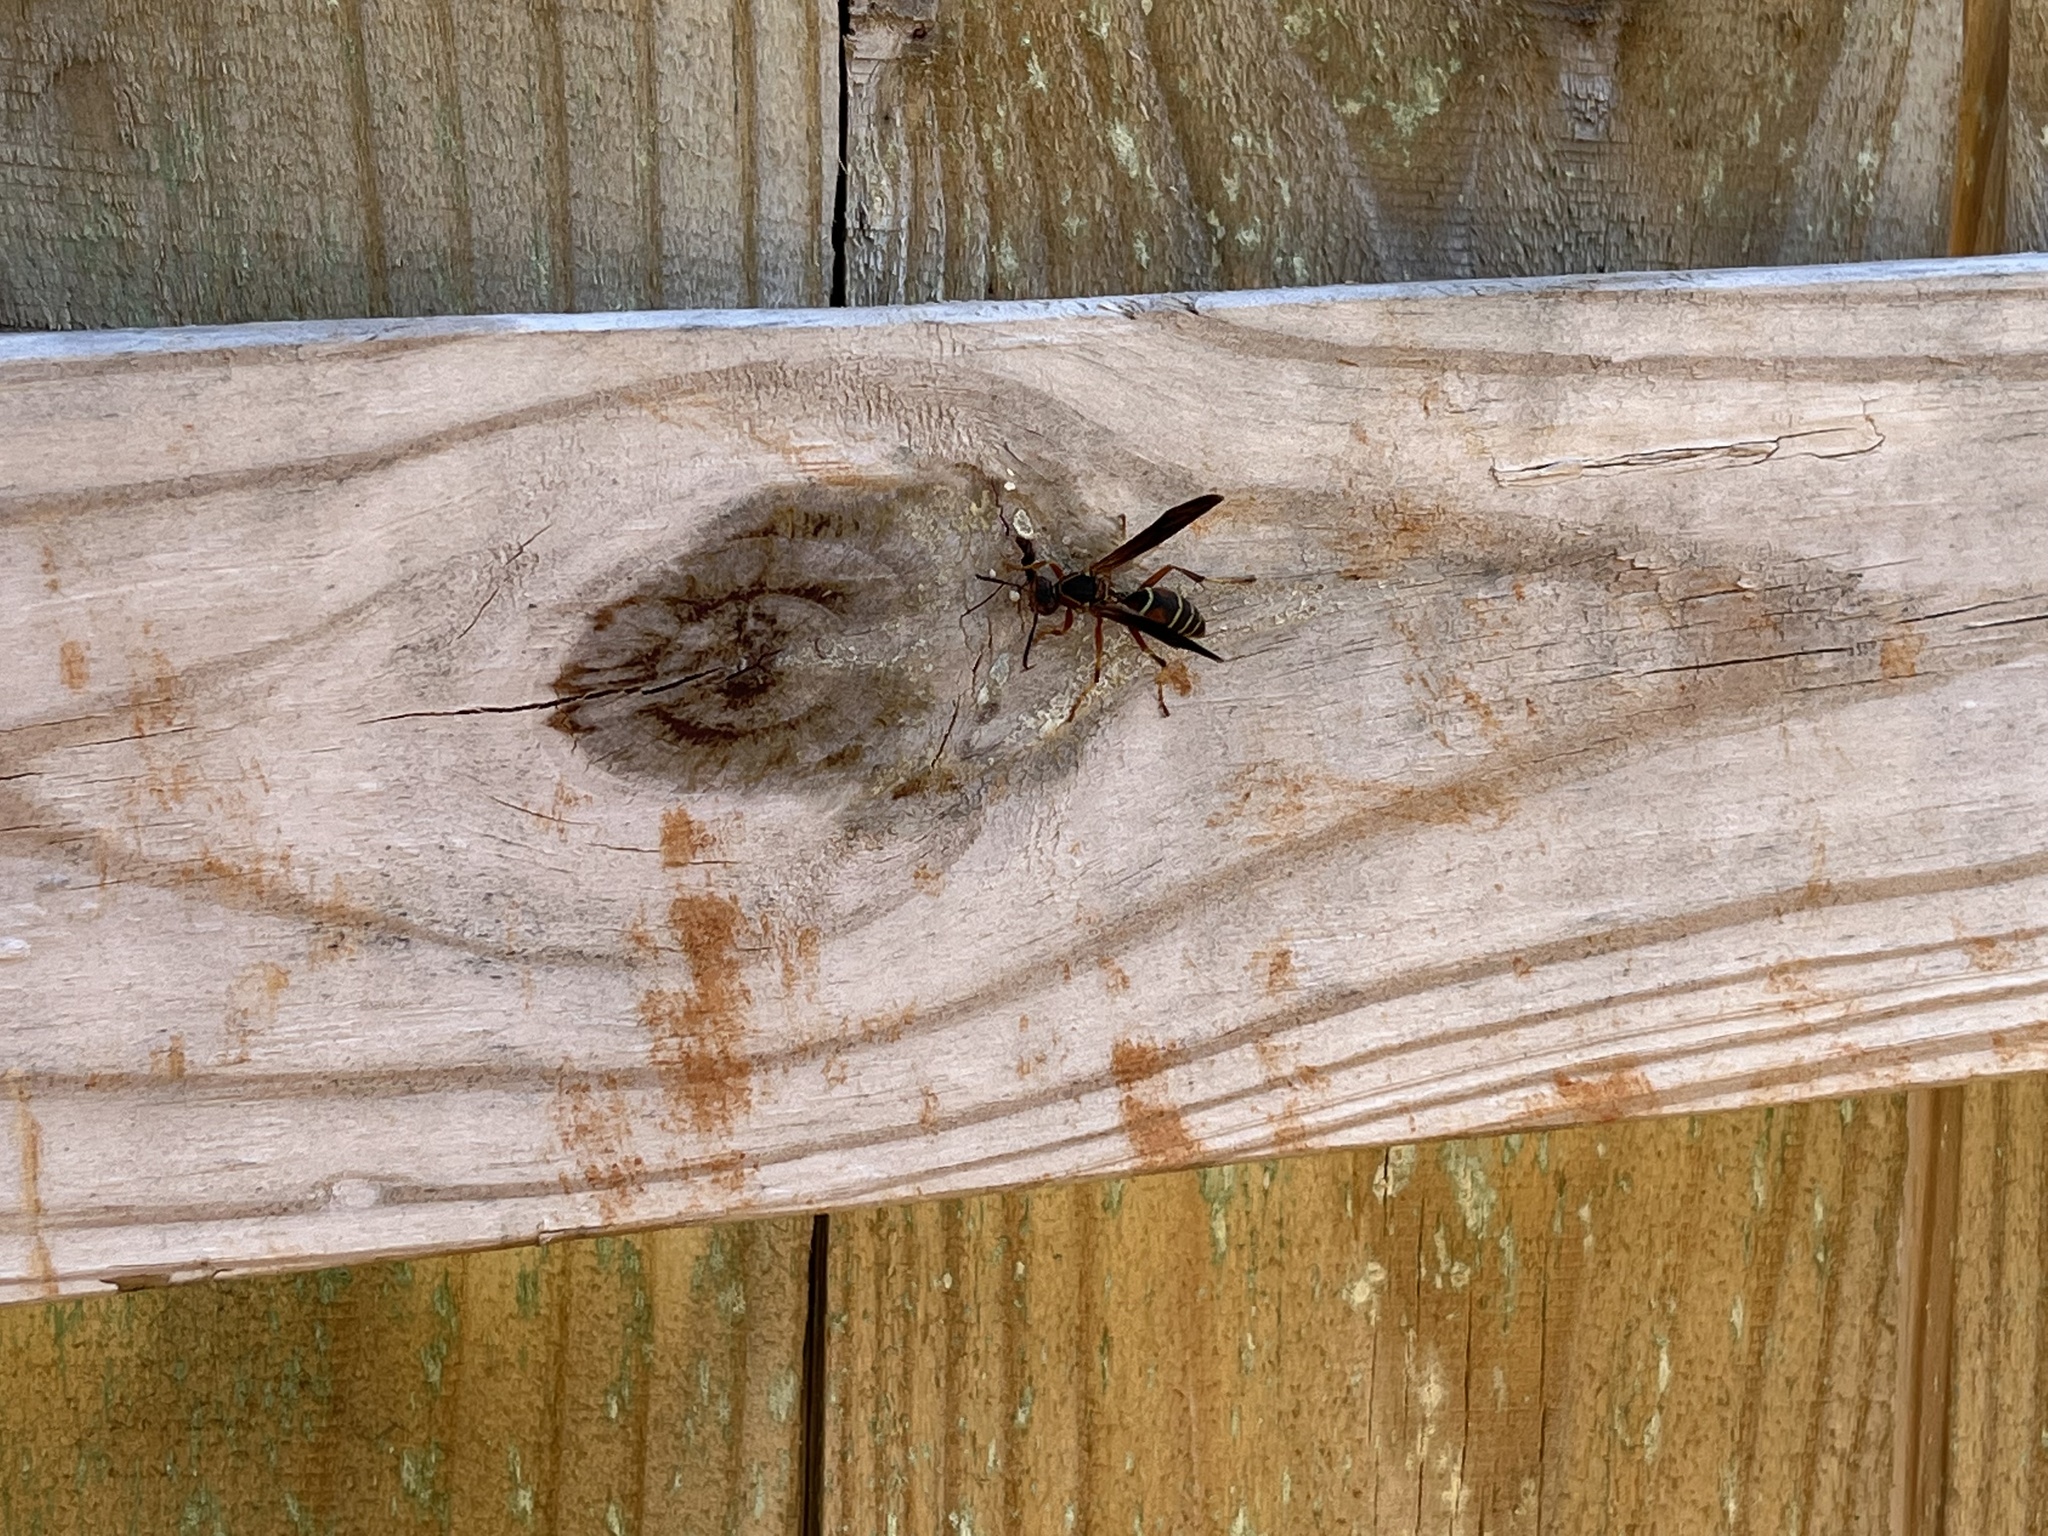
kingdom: Animalia
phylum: Arthropoda
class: Insecta
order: Hymenoptera
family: Eumenidae
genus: Polistes
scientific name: Polistes fuscatus
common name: Dark paper wasp
